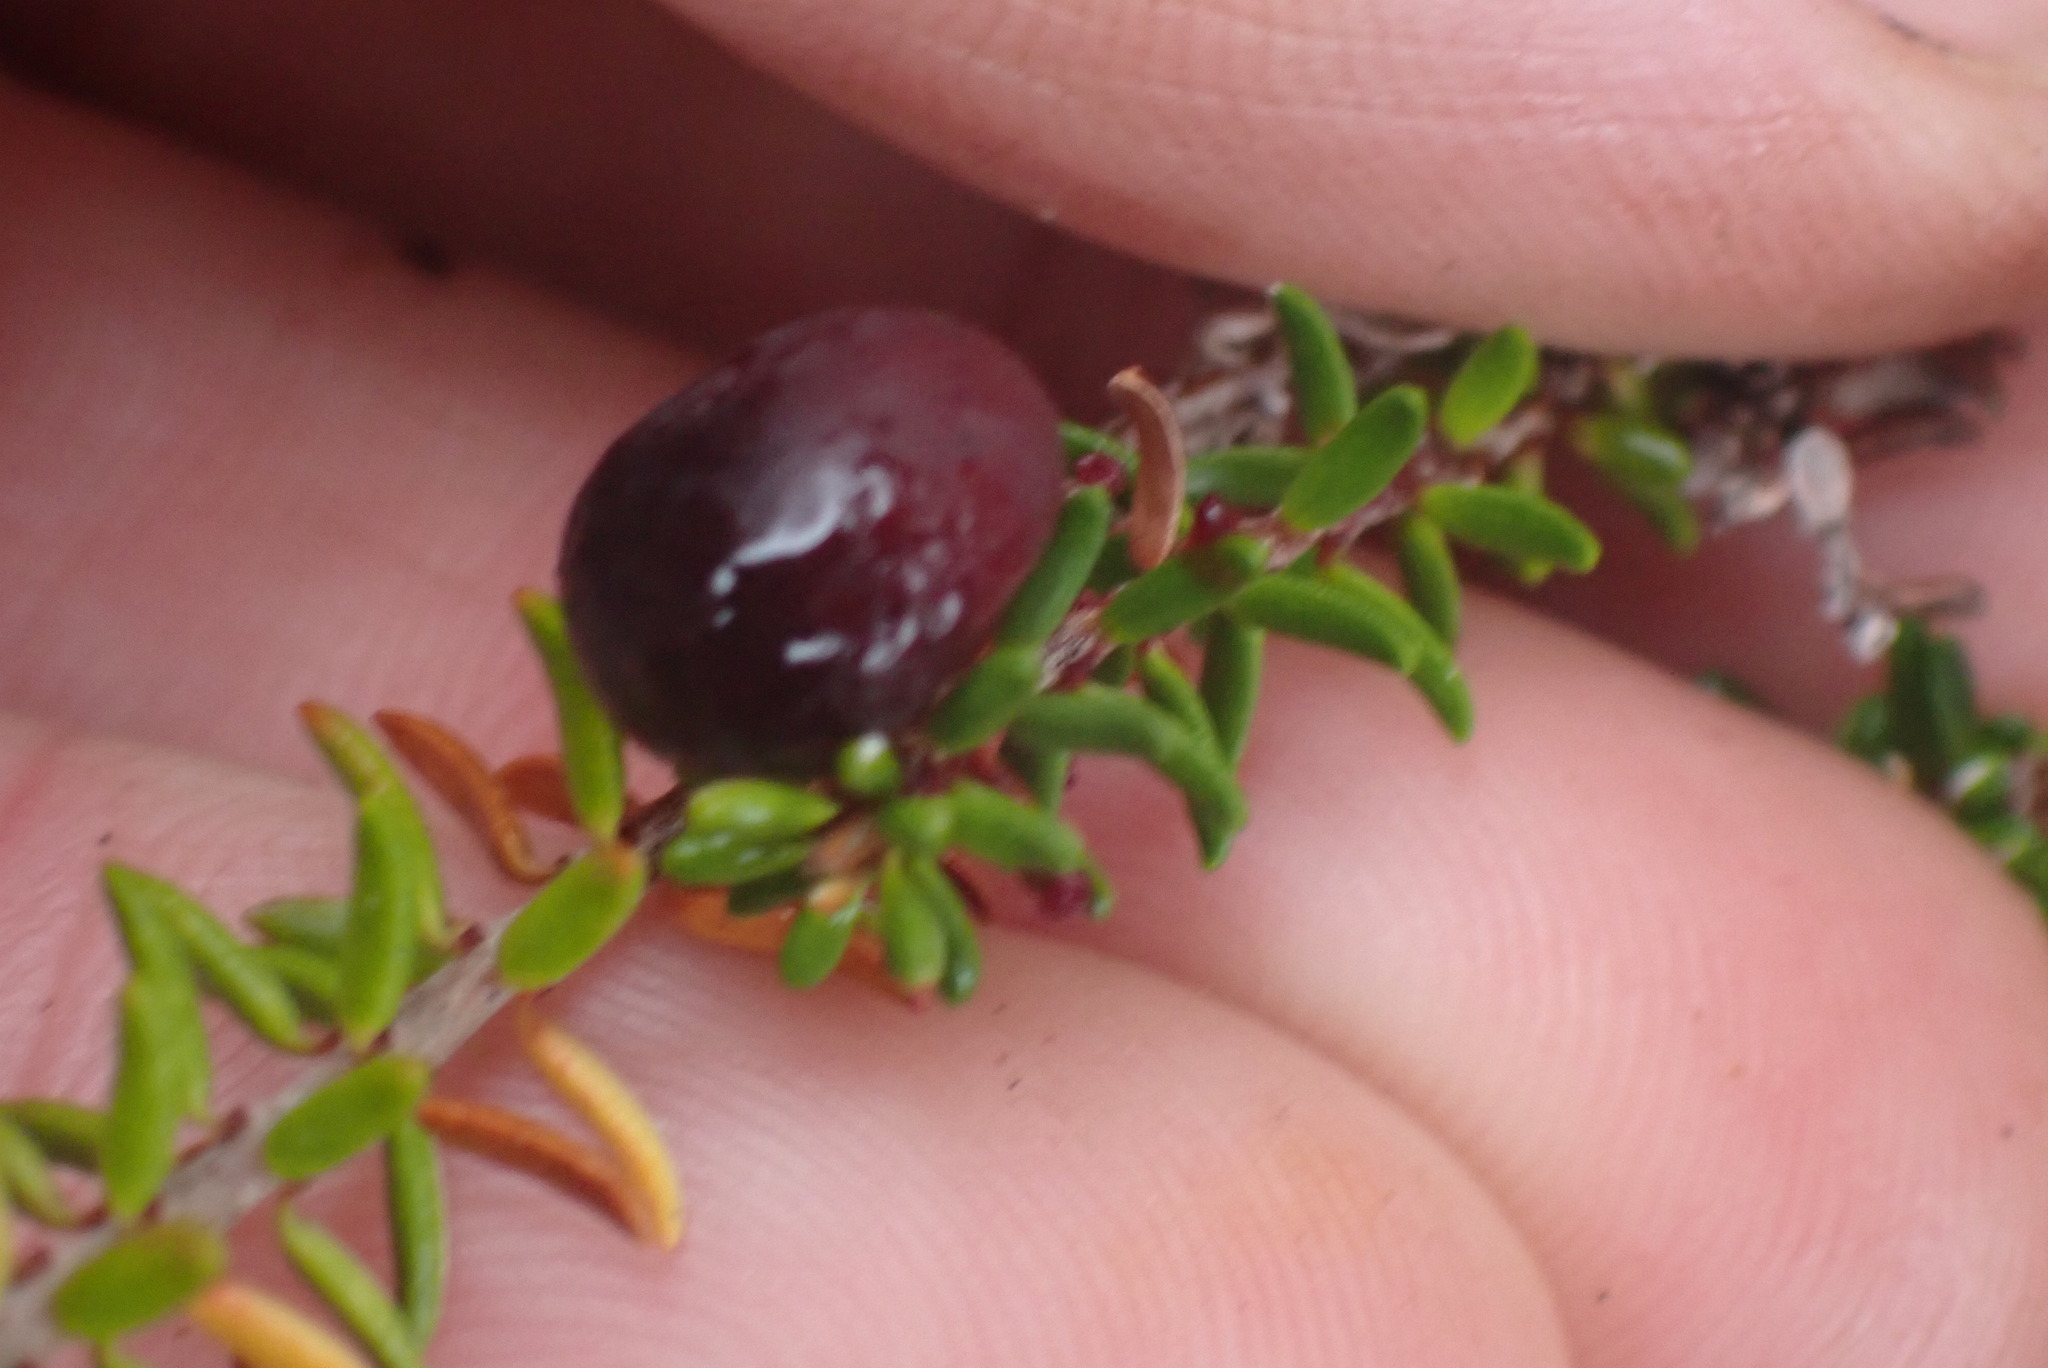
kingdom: Plantae
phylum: Tracheophyta
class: Magnoliopsida
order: Ericales
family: Ericaceae
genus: Empetrum
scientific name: Empetrum nigrum
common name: Black crowberry
